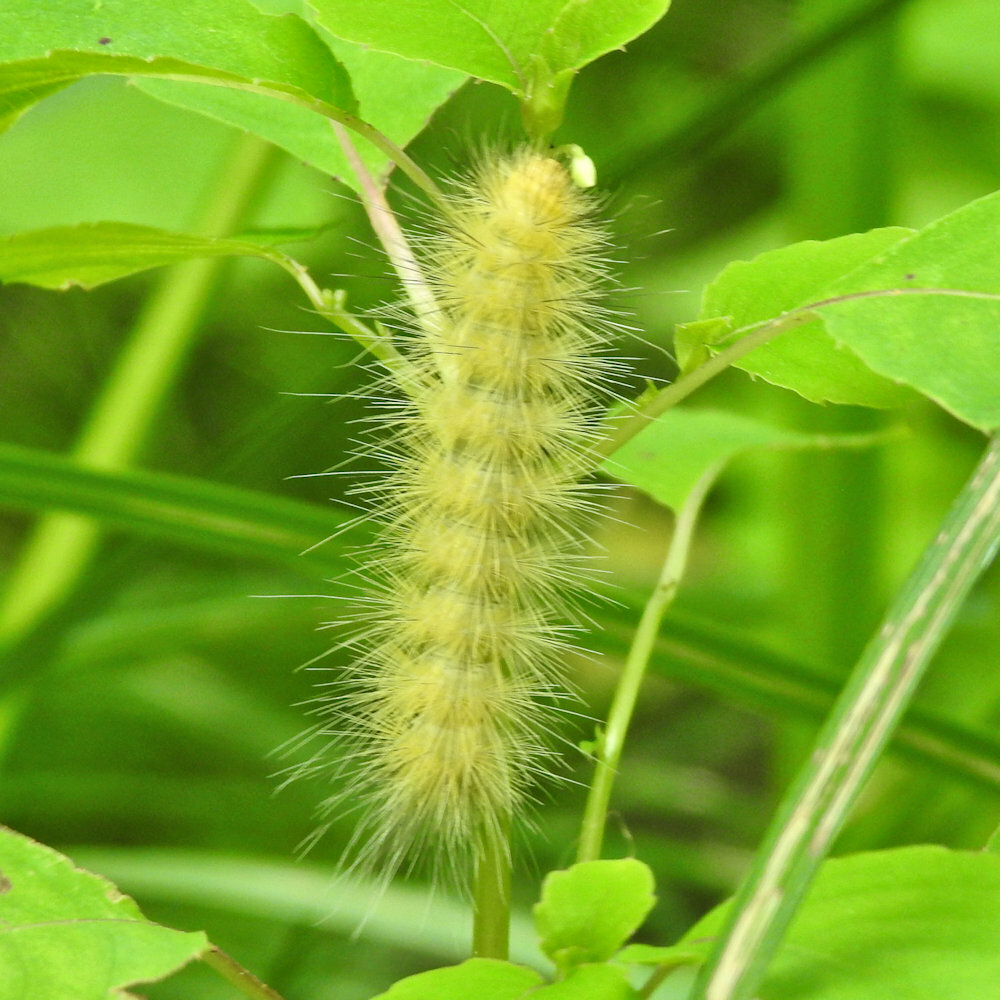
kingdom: Animalia
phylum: Arthropoda
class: Insecta
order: Lepidoptera
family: Erebidae
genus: Spilosoma
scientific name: Spilosoma virginica
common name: Virginia tiger moth
